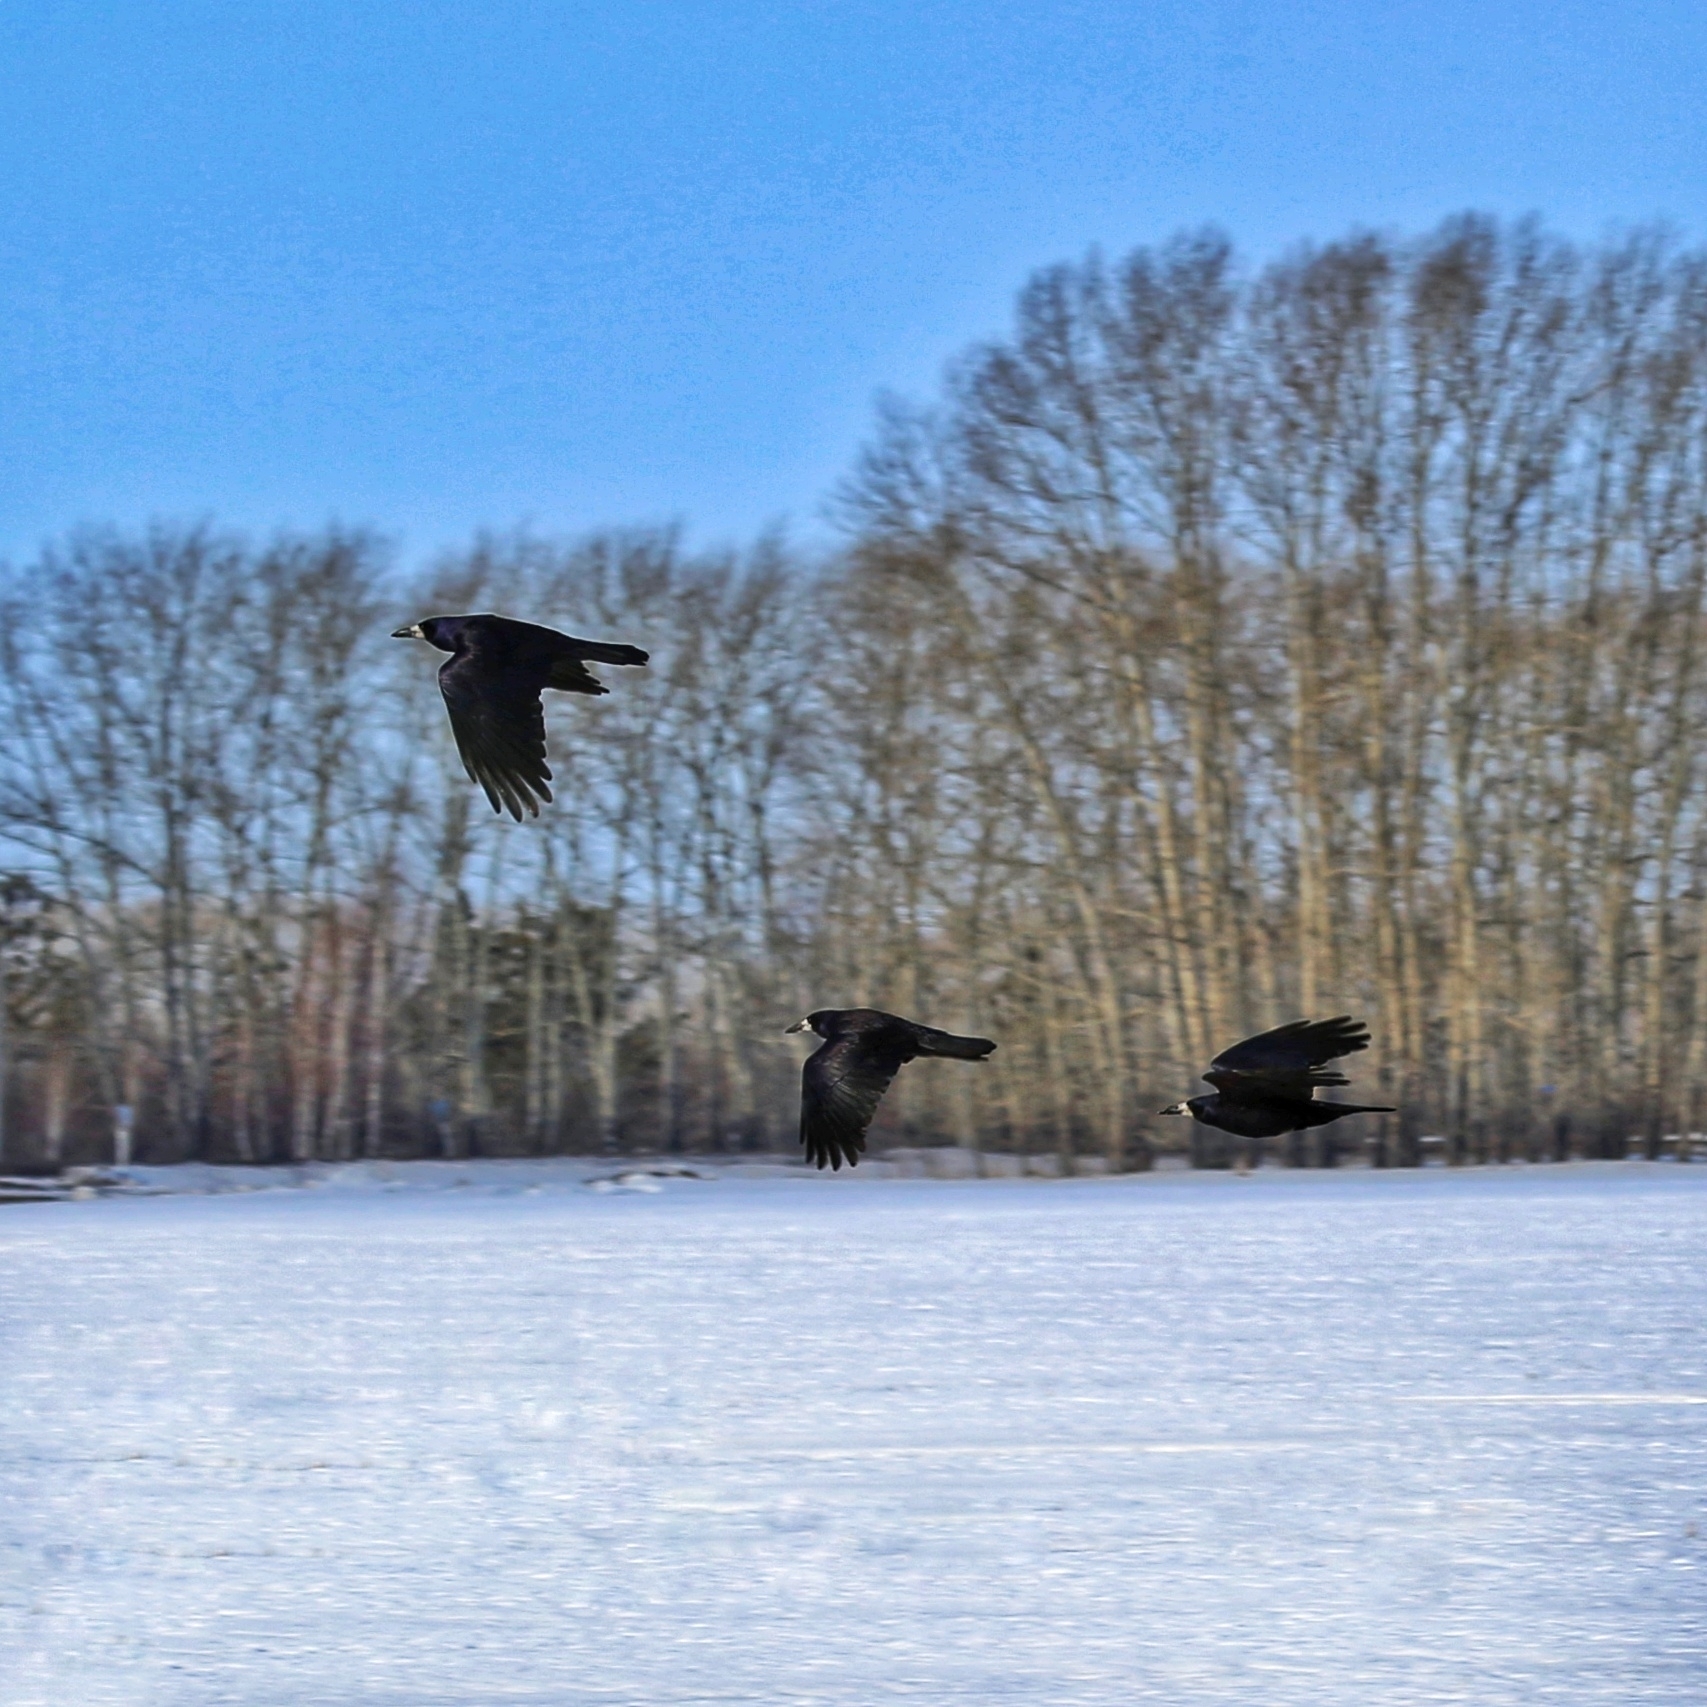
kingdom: Animalia
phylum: Chordata
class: Aves
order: Passeriformes
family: Corvidae
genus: Corvus
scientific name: Corvus frugilegus
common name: Rook
